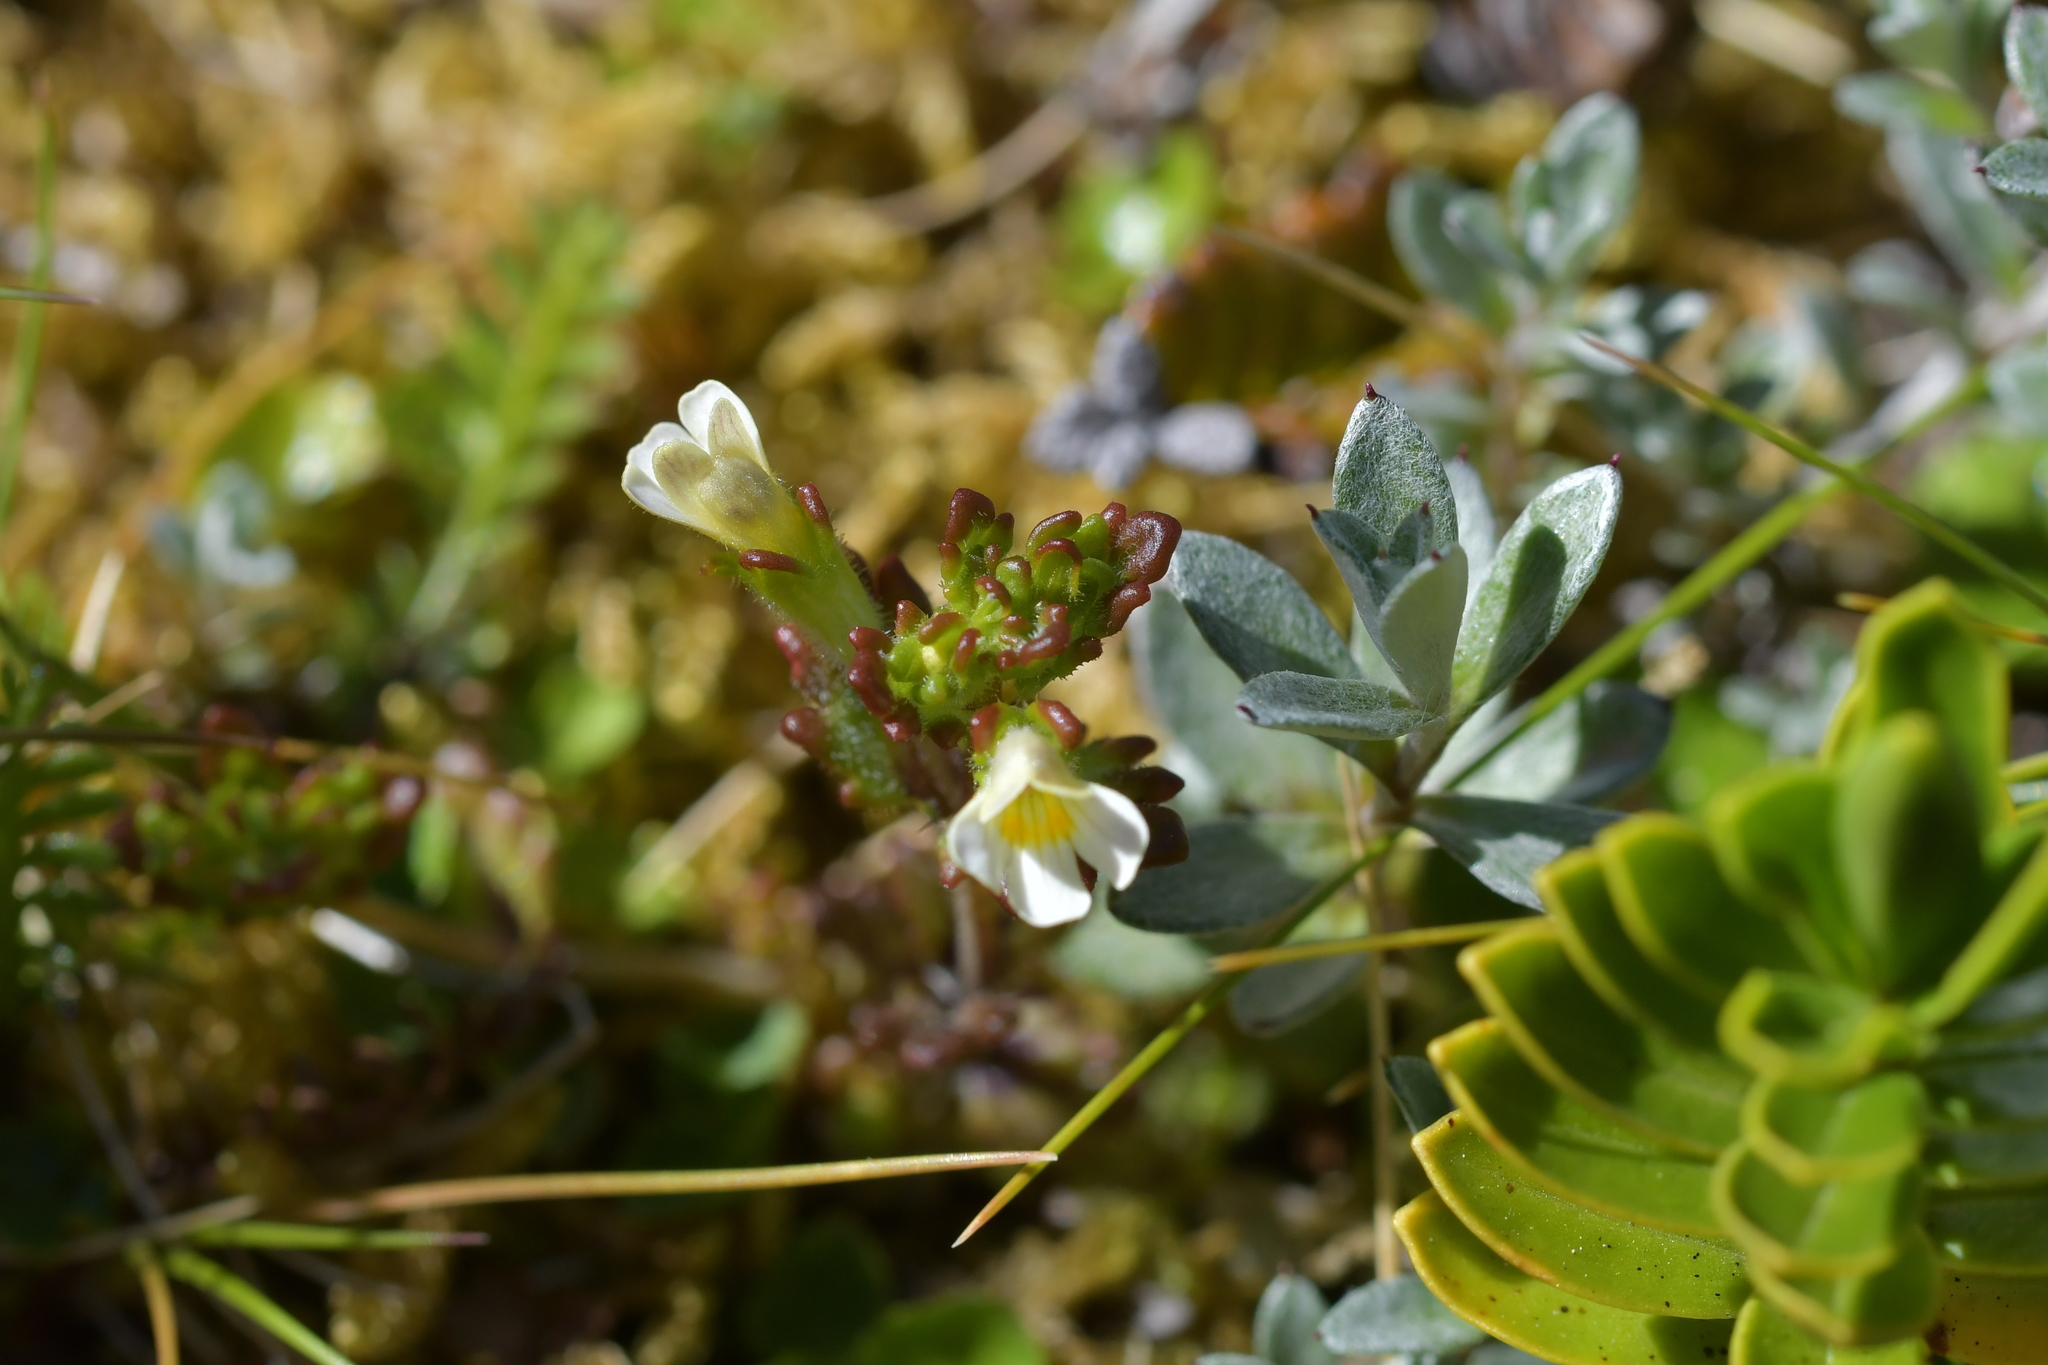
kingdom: Plantae
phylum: Tracheophyta
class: Magnoliopsida
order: Lamiales
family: Orobanchaceae
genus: Euphrasia
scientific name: Euphrasia australis
